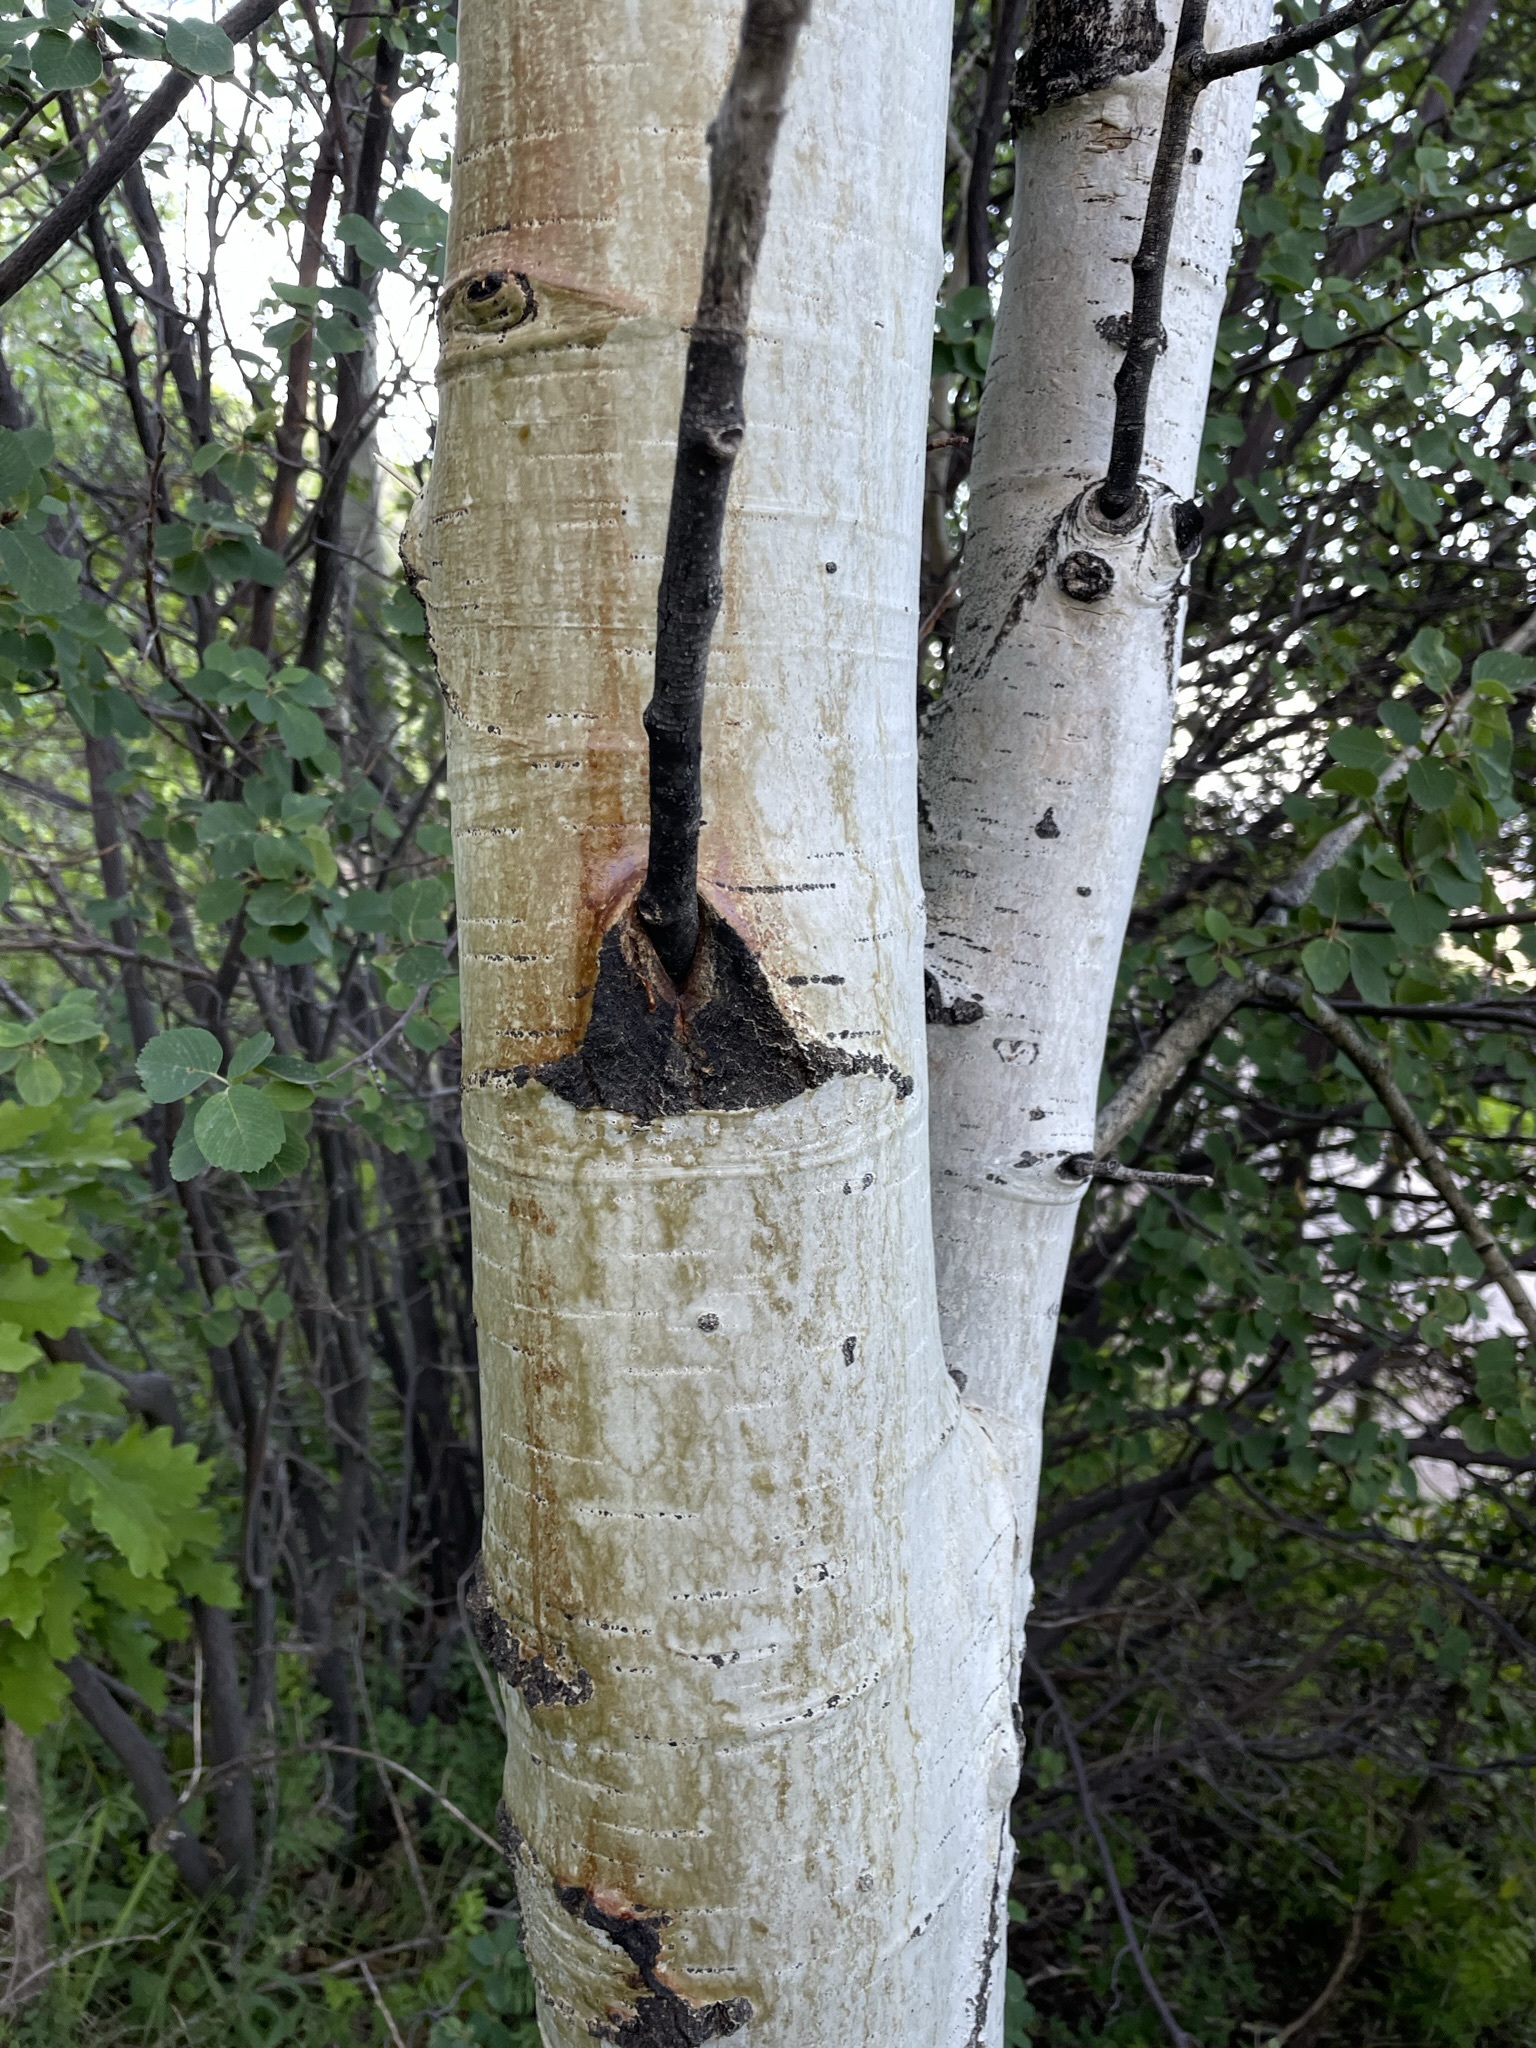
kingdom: Plantae
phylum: Tracheophyta
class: Magnoliopsida
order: Malpighiales
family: Salicaceae
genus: Populus
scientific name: Populus tremuloides
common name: Quaking aspen
